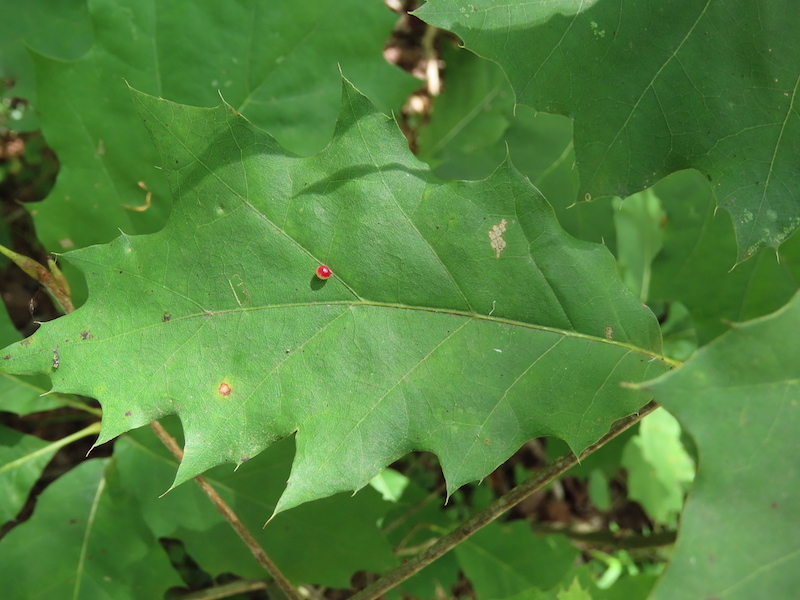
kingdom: Animalia
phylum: Arthropoda
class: Insecta
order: Hymenoptera
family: Cynipidae
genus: Zopheroteras
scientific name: Zopheroteras
